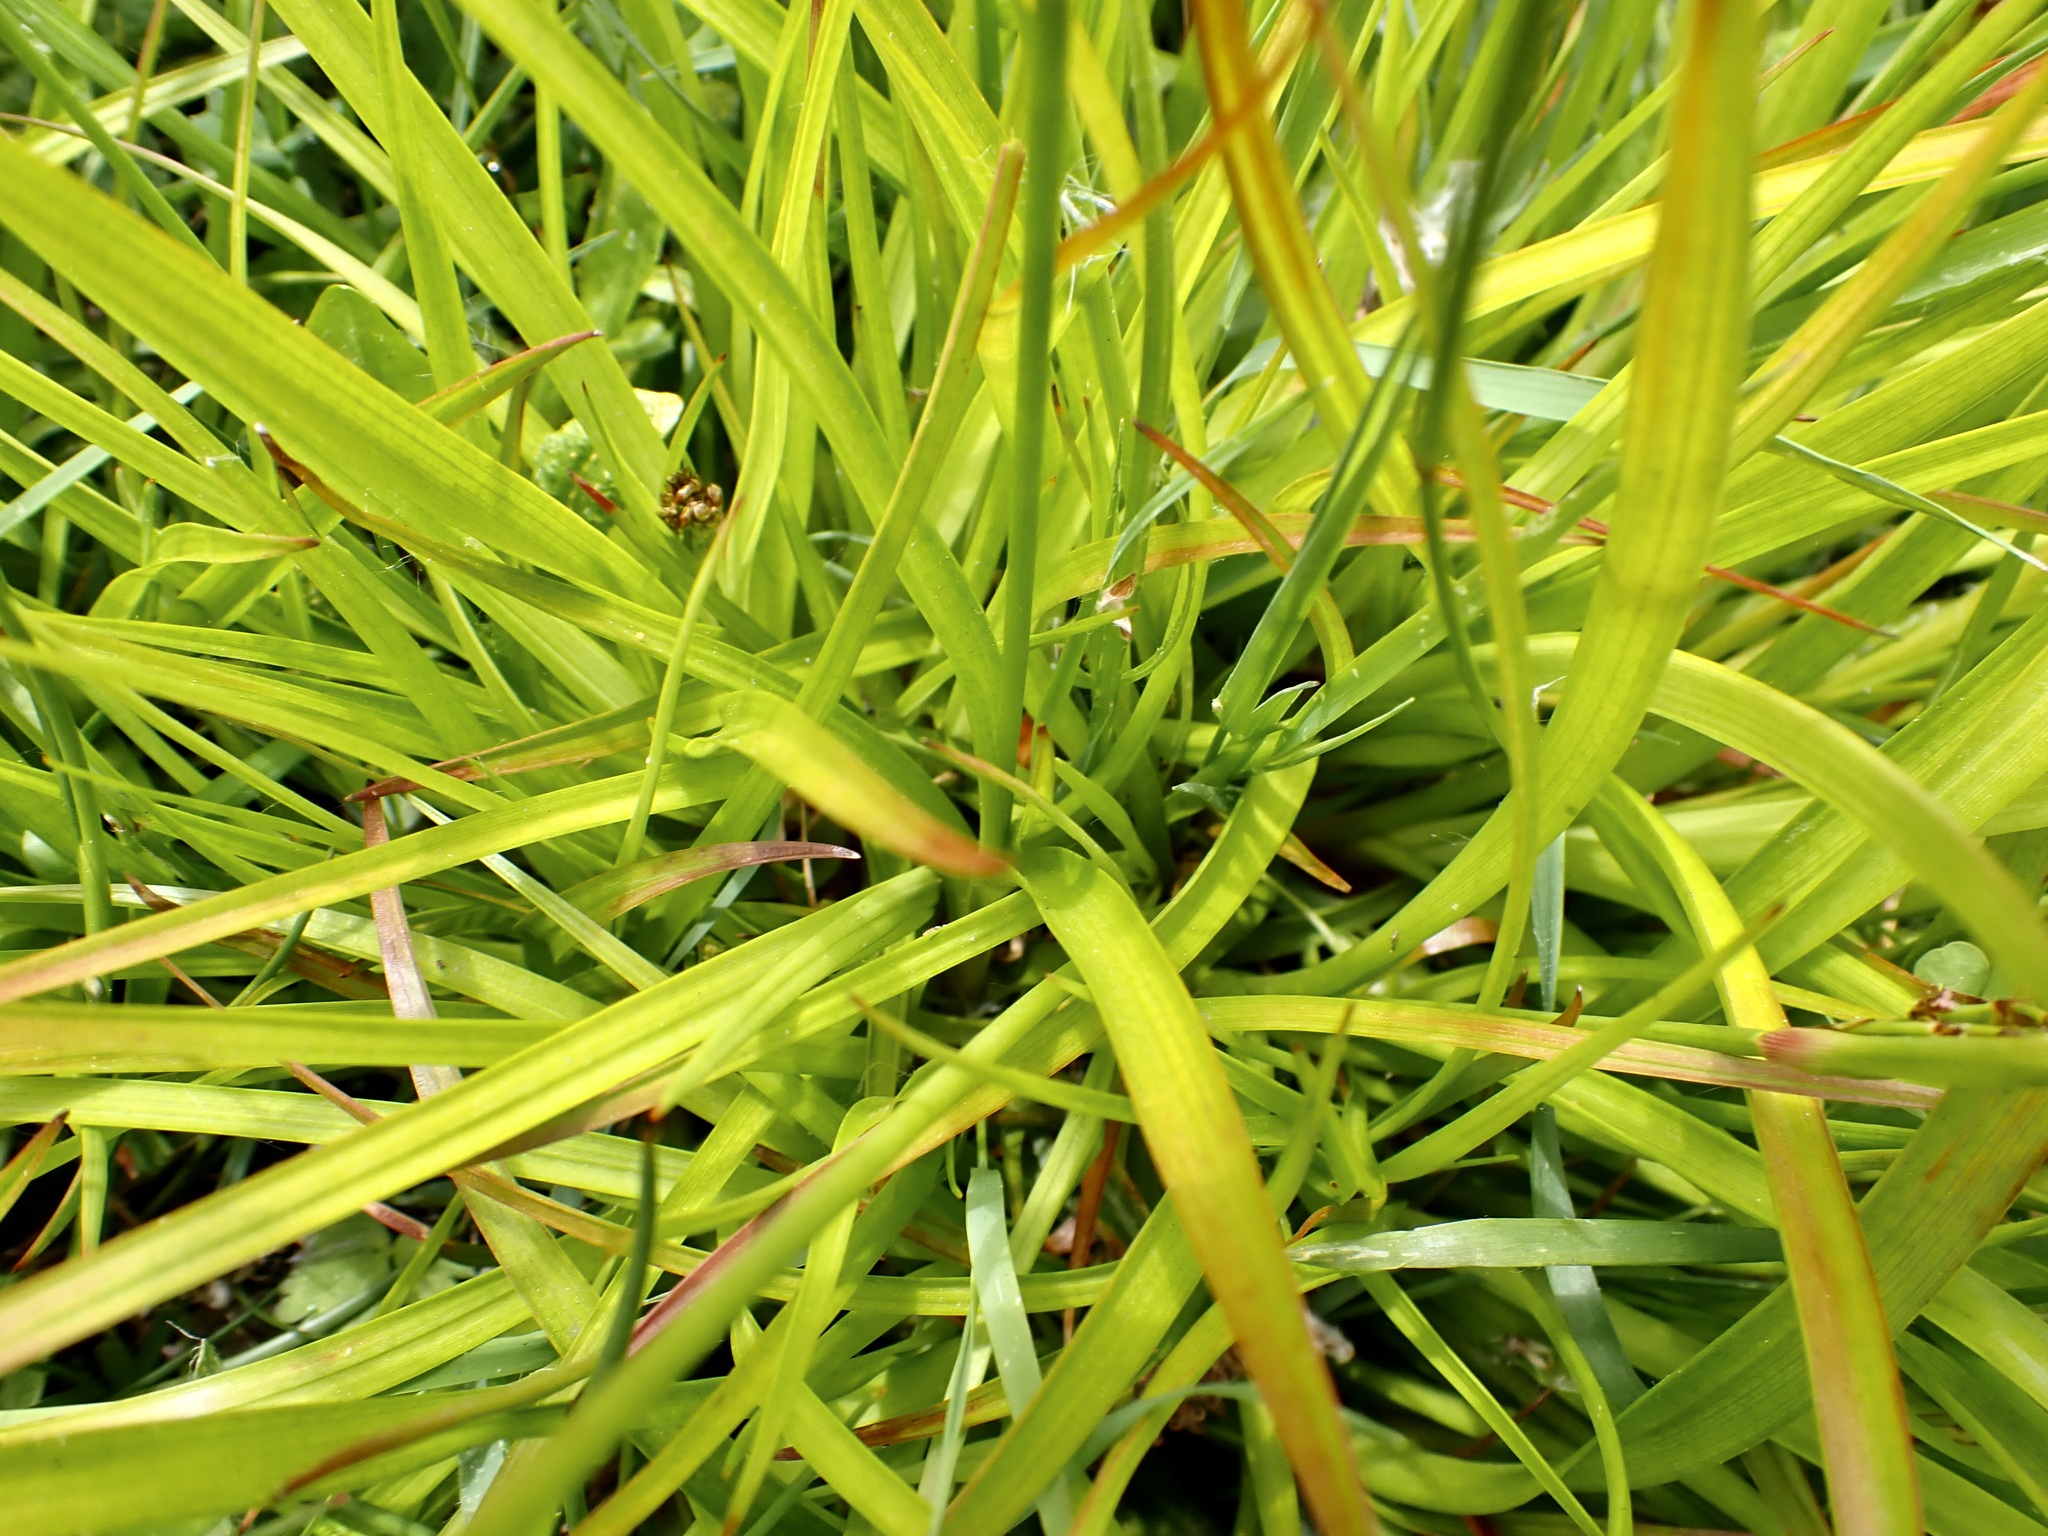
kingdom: Plantae
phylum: Tracheophyta
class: Liliopsida
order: Poales
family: Juncaceae
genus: Juncus
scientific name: Juncus planifolius
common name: Broadleaf rush
